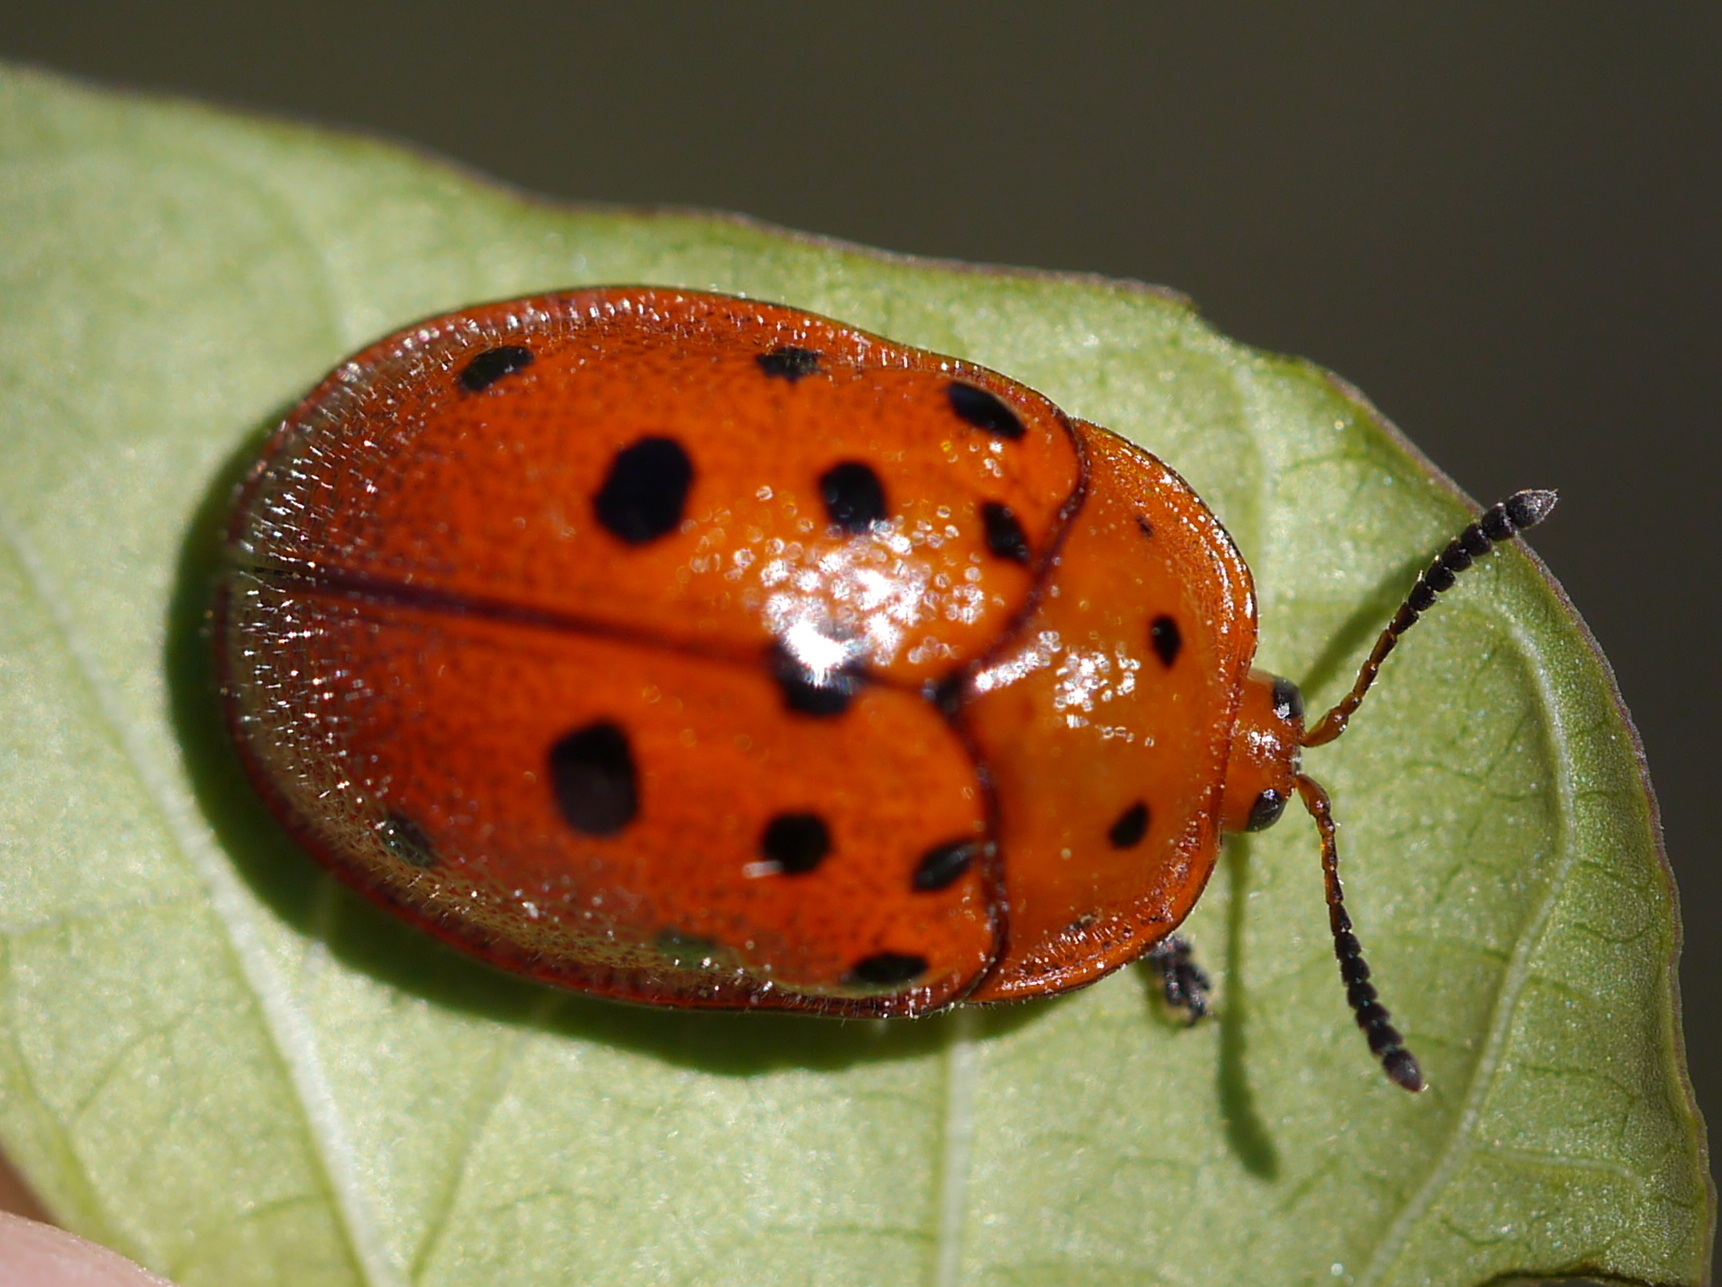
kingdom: Animalia
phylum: Arthropoda
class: Insecta
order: Coleoptera
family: Chrysomelidae
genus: Chelymorpha
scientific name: Chelymorpha phytophagica
